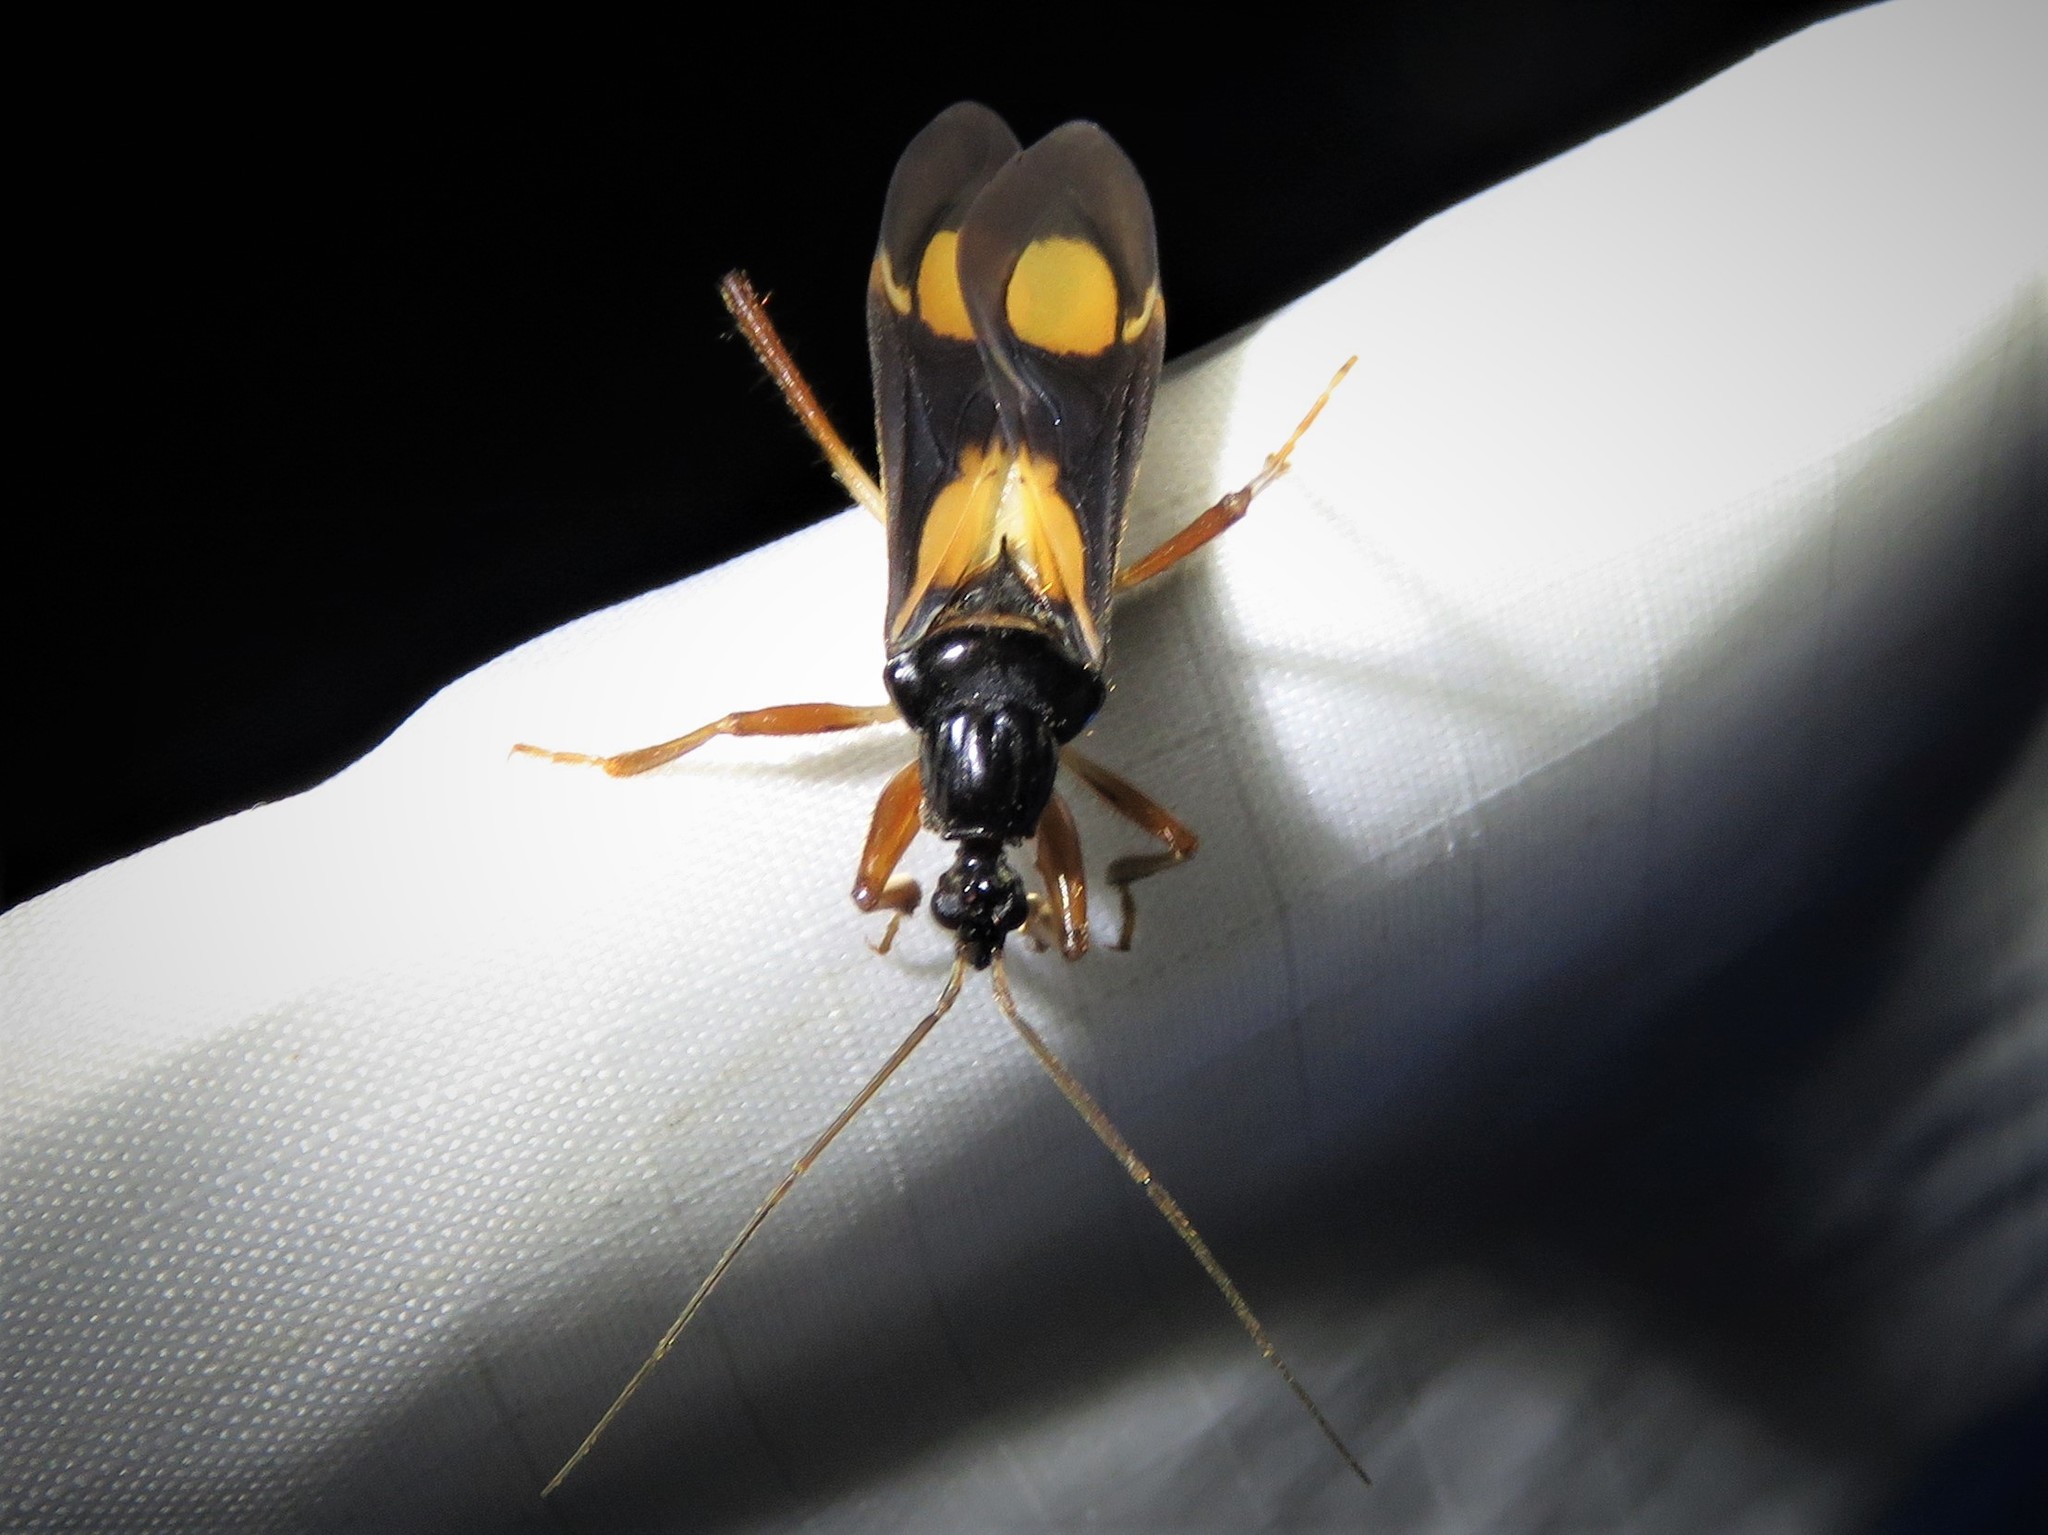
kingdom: Animalia
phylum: Arthropoda
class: Insecta
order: Hemiptera
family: Reduviidae
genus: Rasahus
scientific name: Rasahus hamatus
